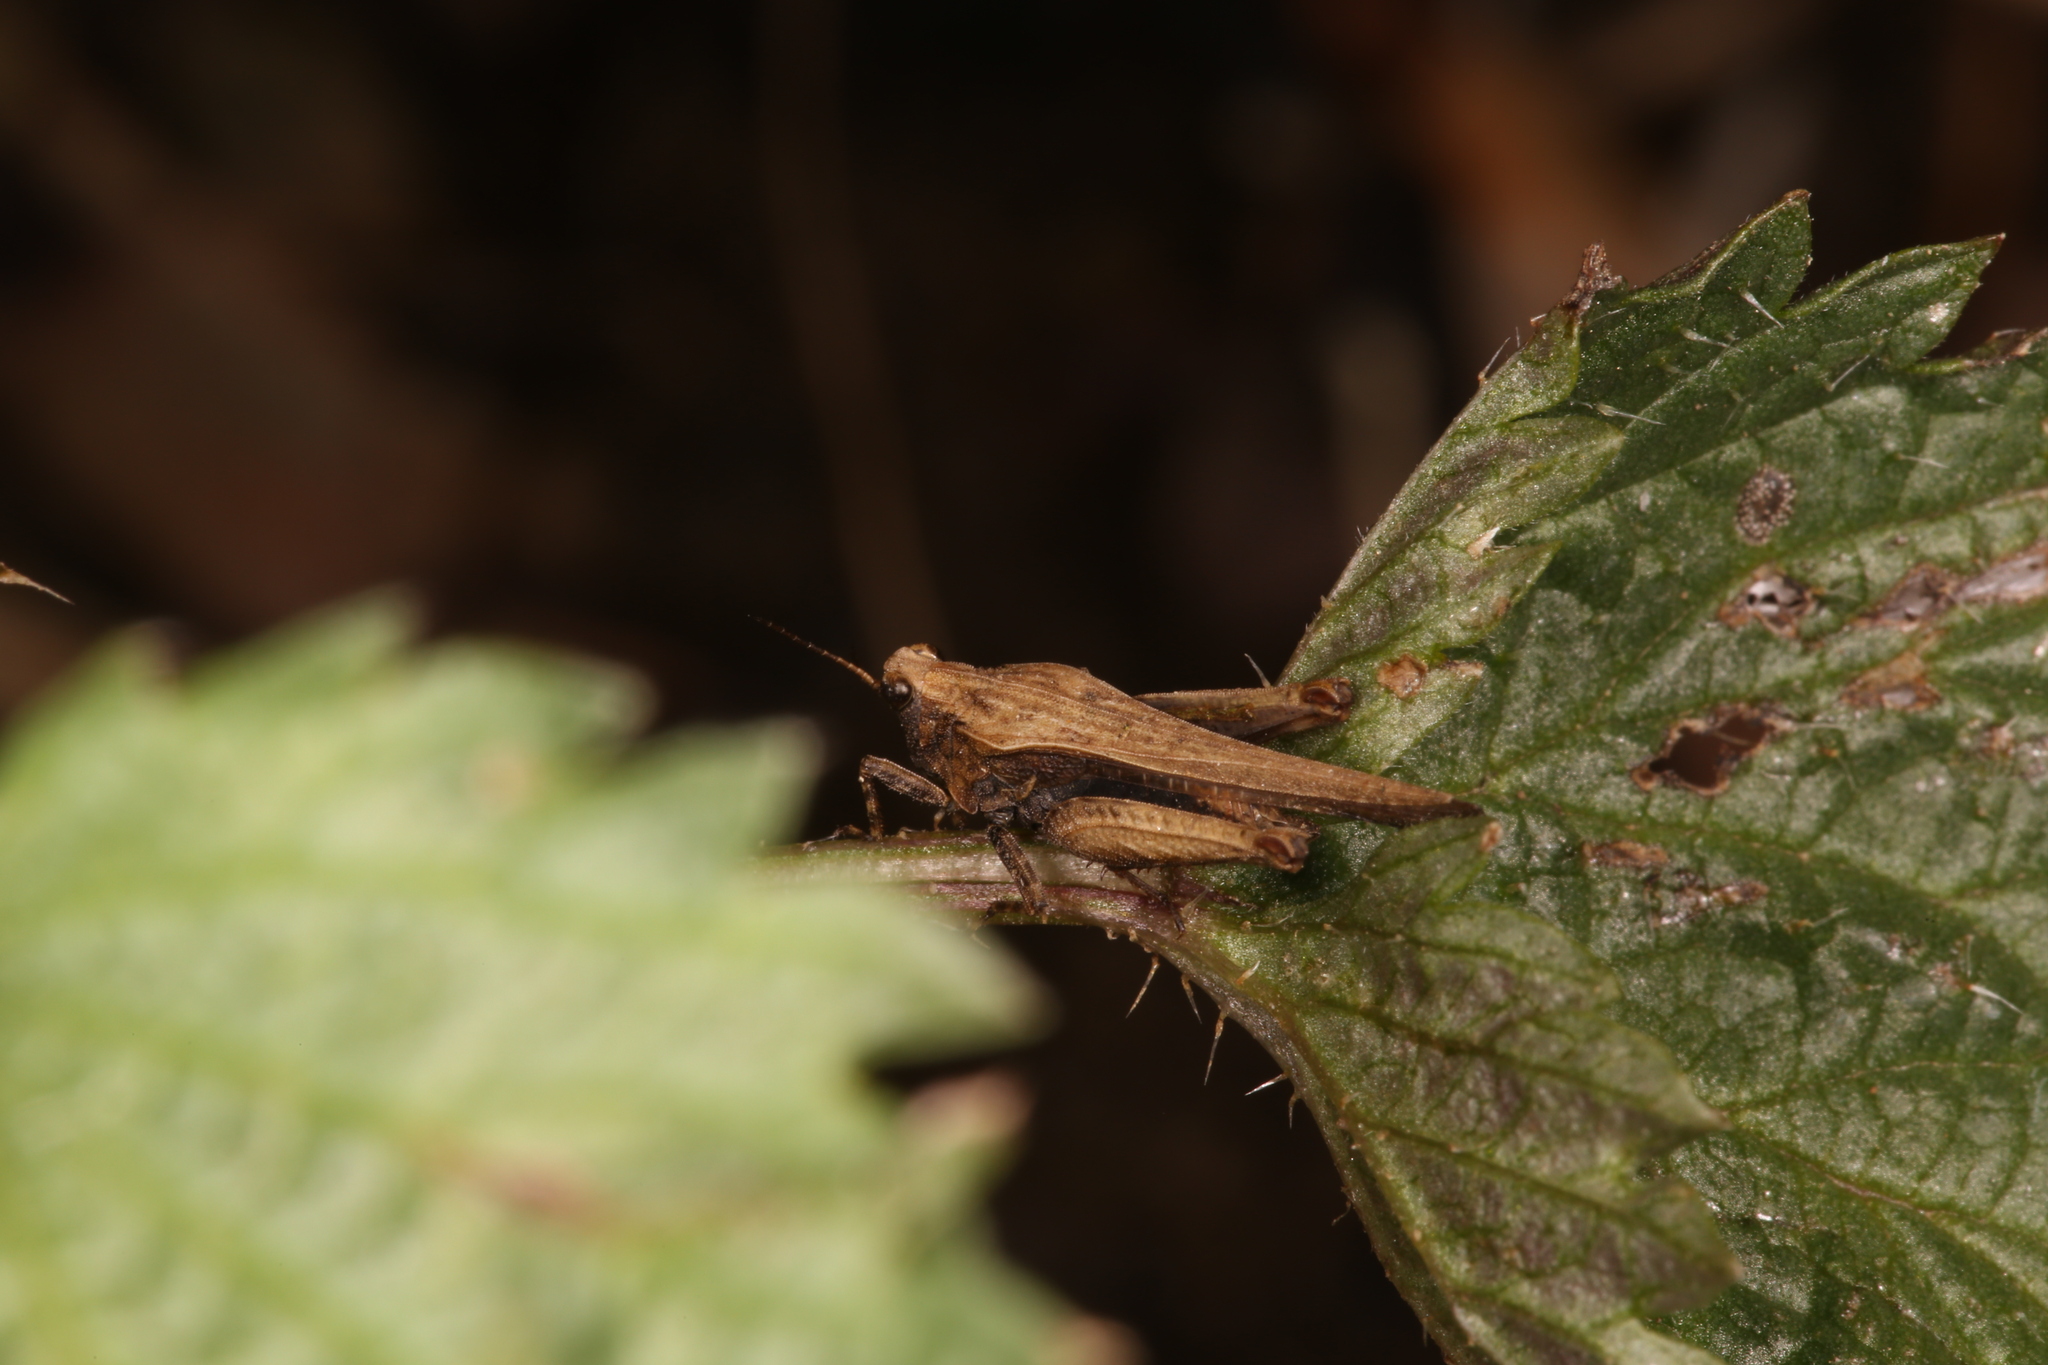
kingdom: Animalia
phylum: Arthropoda
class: Insecta
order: Orthoptera
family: Tetrigidae
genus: Tetrix
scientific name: Tetrix subulata
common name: Slender ground-hopper
